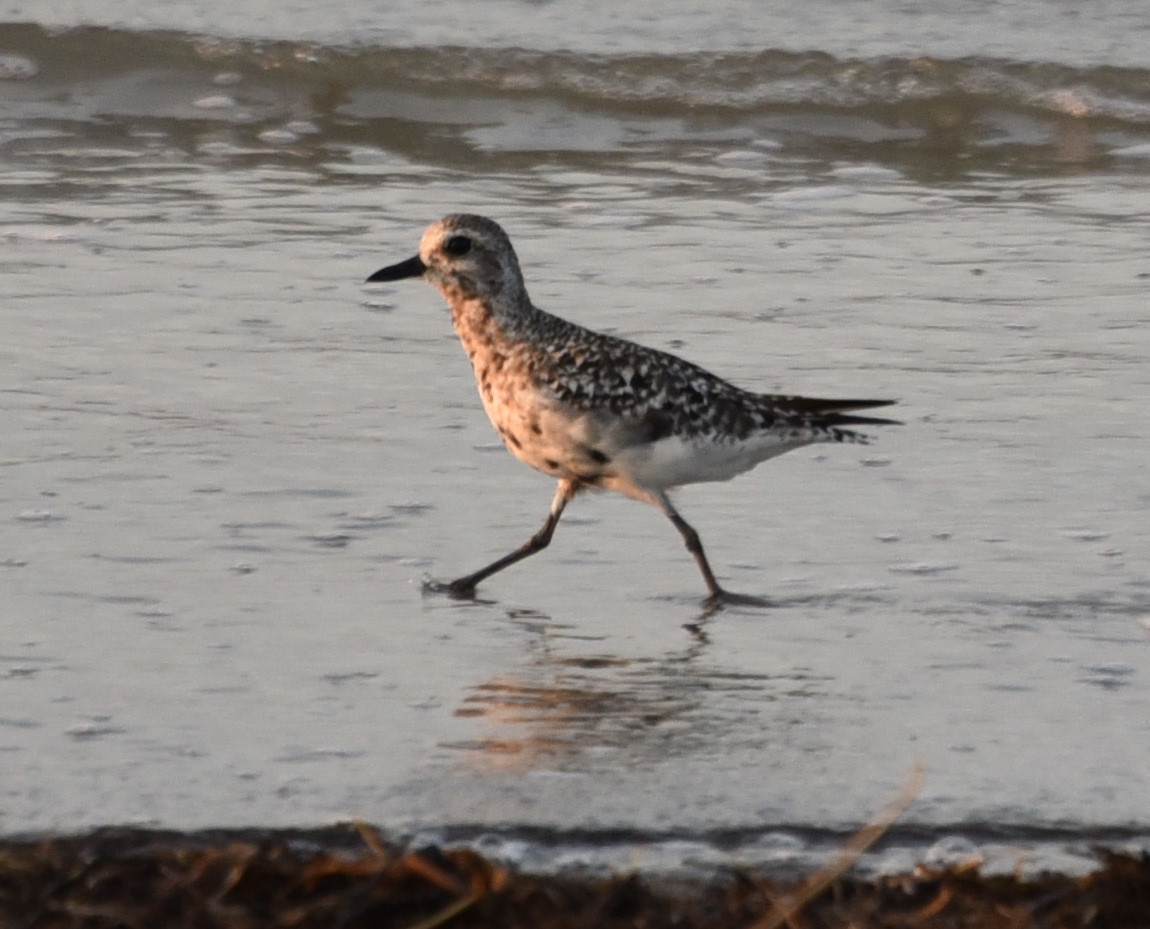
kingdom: Animalia
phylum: Chordata
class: Aves
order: Charadriiformes
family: Charadriidae
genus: Pluvialis
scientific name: Pluvialis squatarola
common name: Grey plover
